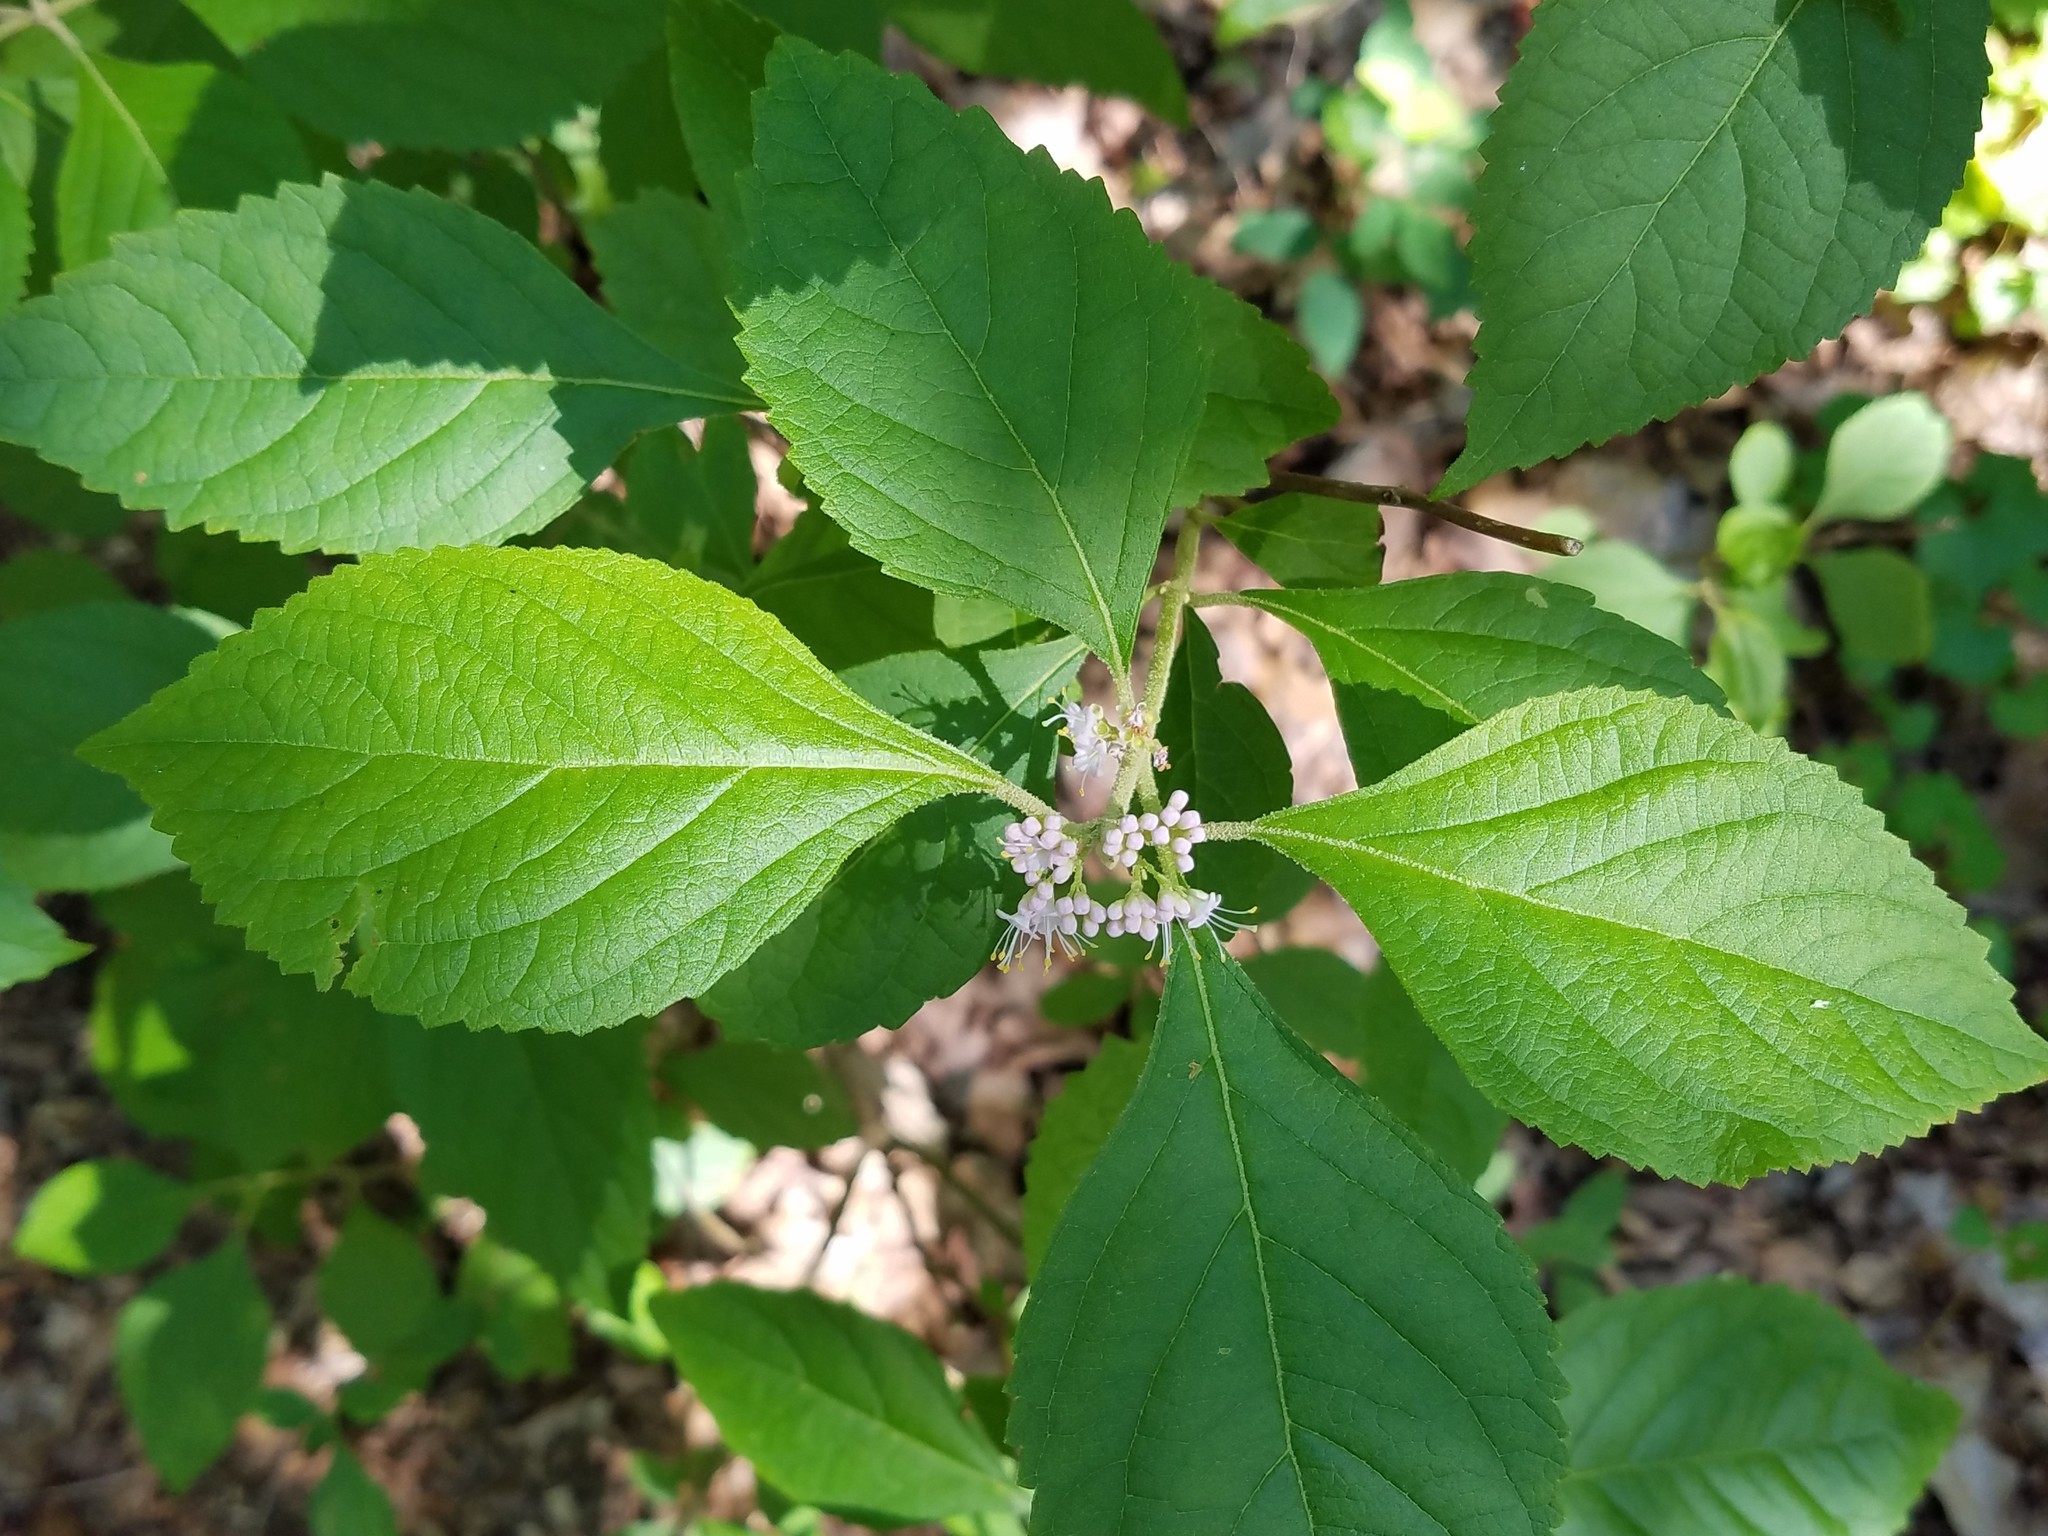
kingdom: Plantae
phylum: Tracheophyta
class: Magnoliopsida
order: Lamiales
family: Lamiaceae
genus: Callicarpa
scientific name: Callicarpa americana
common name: American beautyberry
